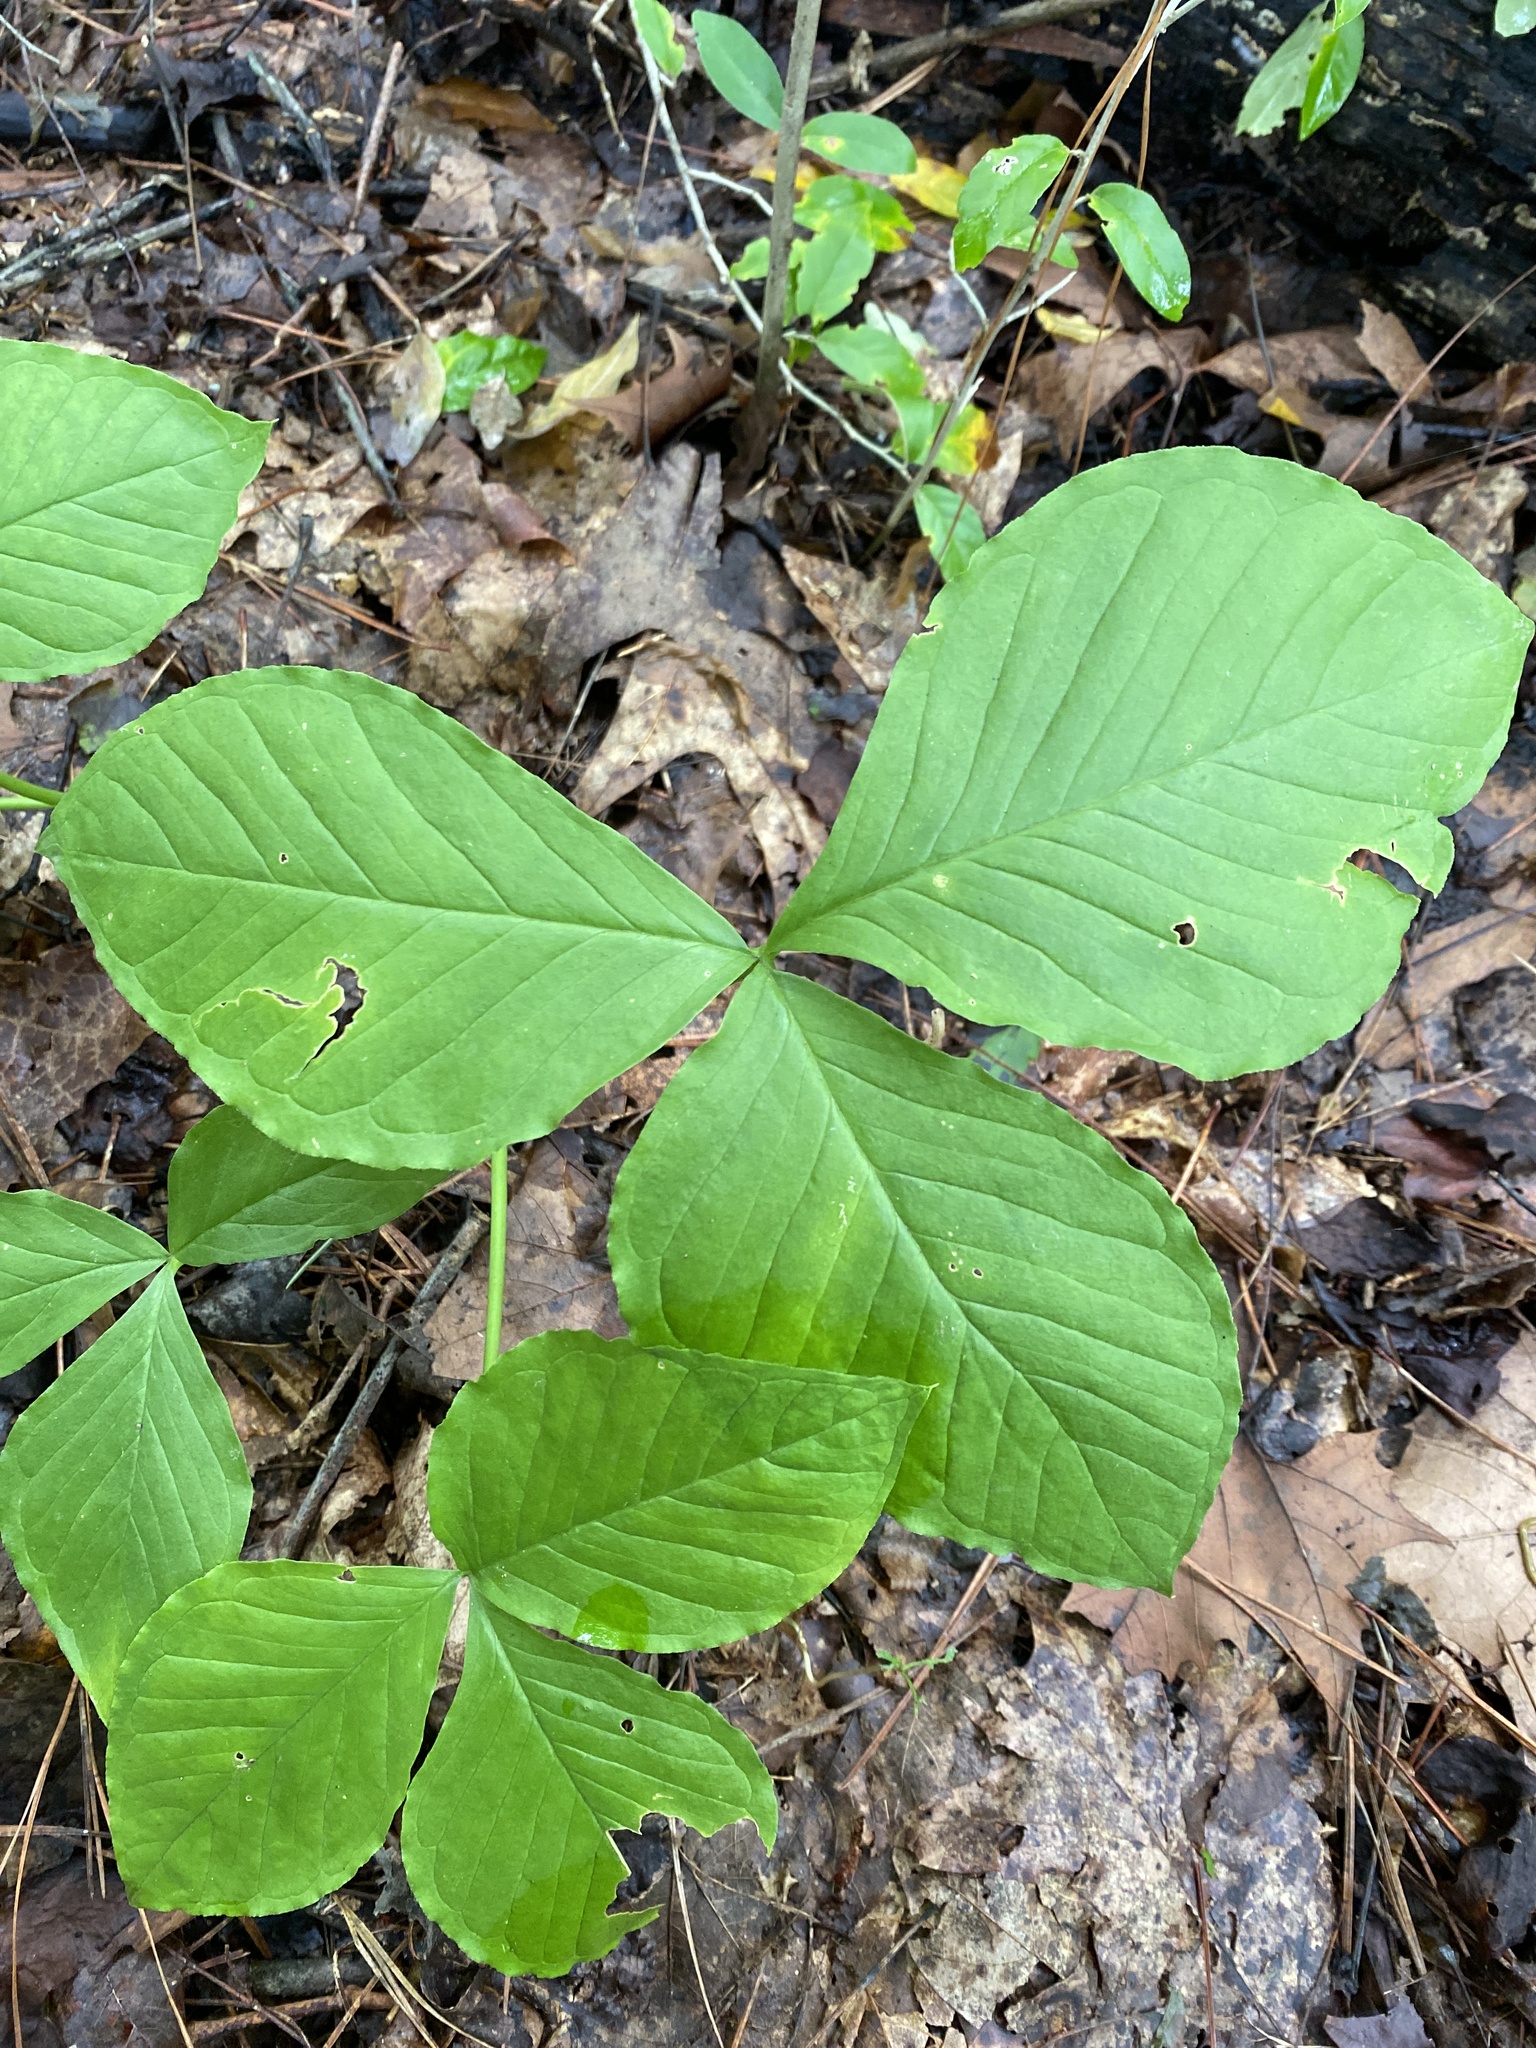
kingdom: Plantae
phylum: Tracheophyta
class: Liliopsida
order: Alismatales
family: Araceae
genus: Arisaema
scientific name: Arisaema triphyllum
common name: Jack-in-the-pulpit
